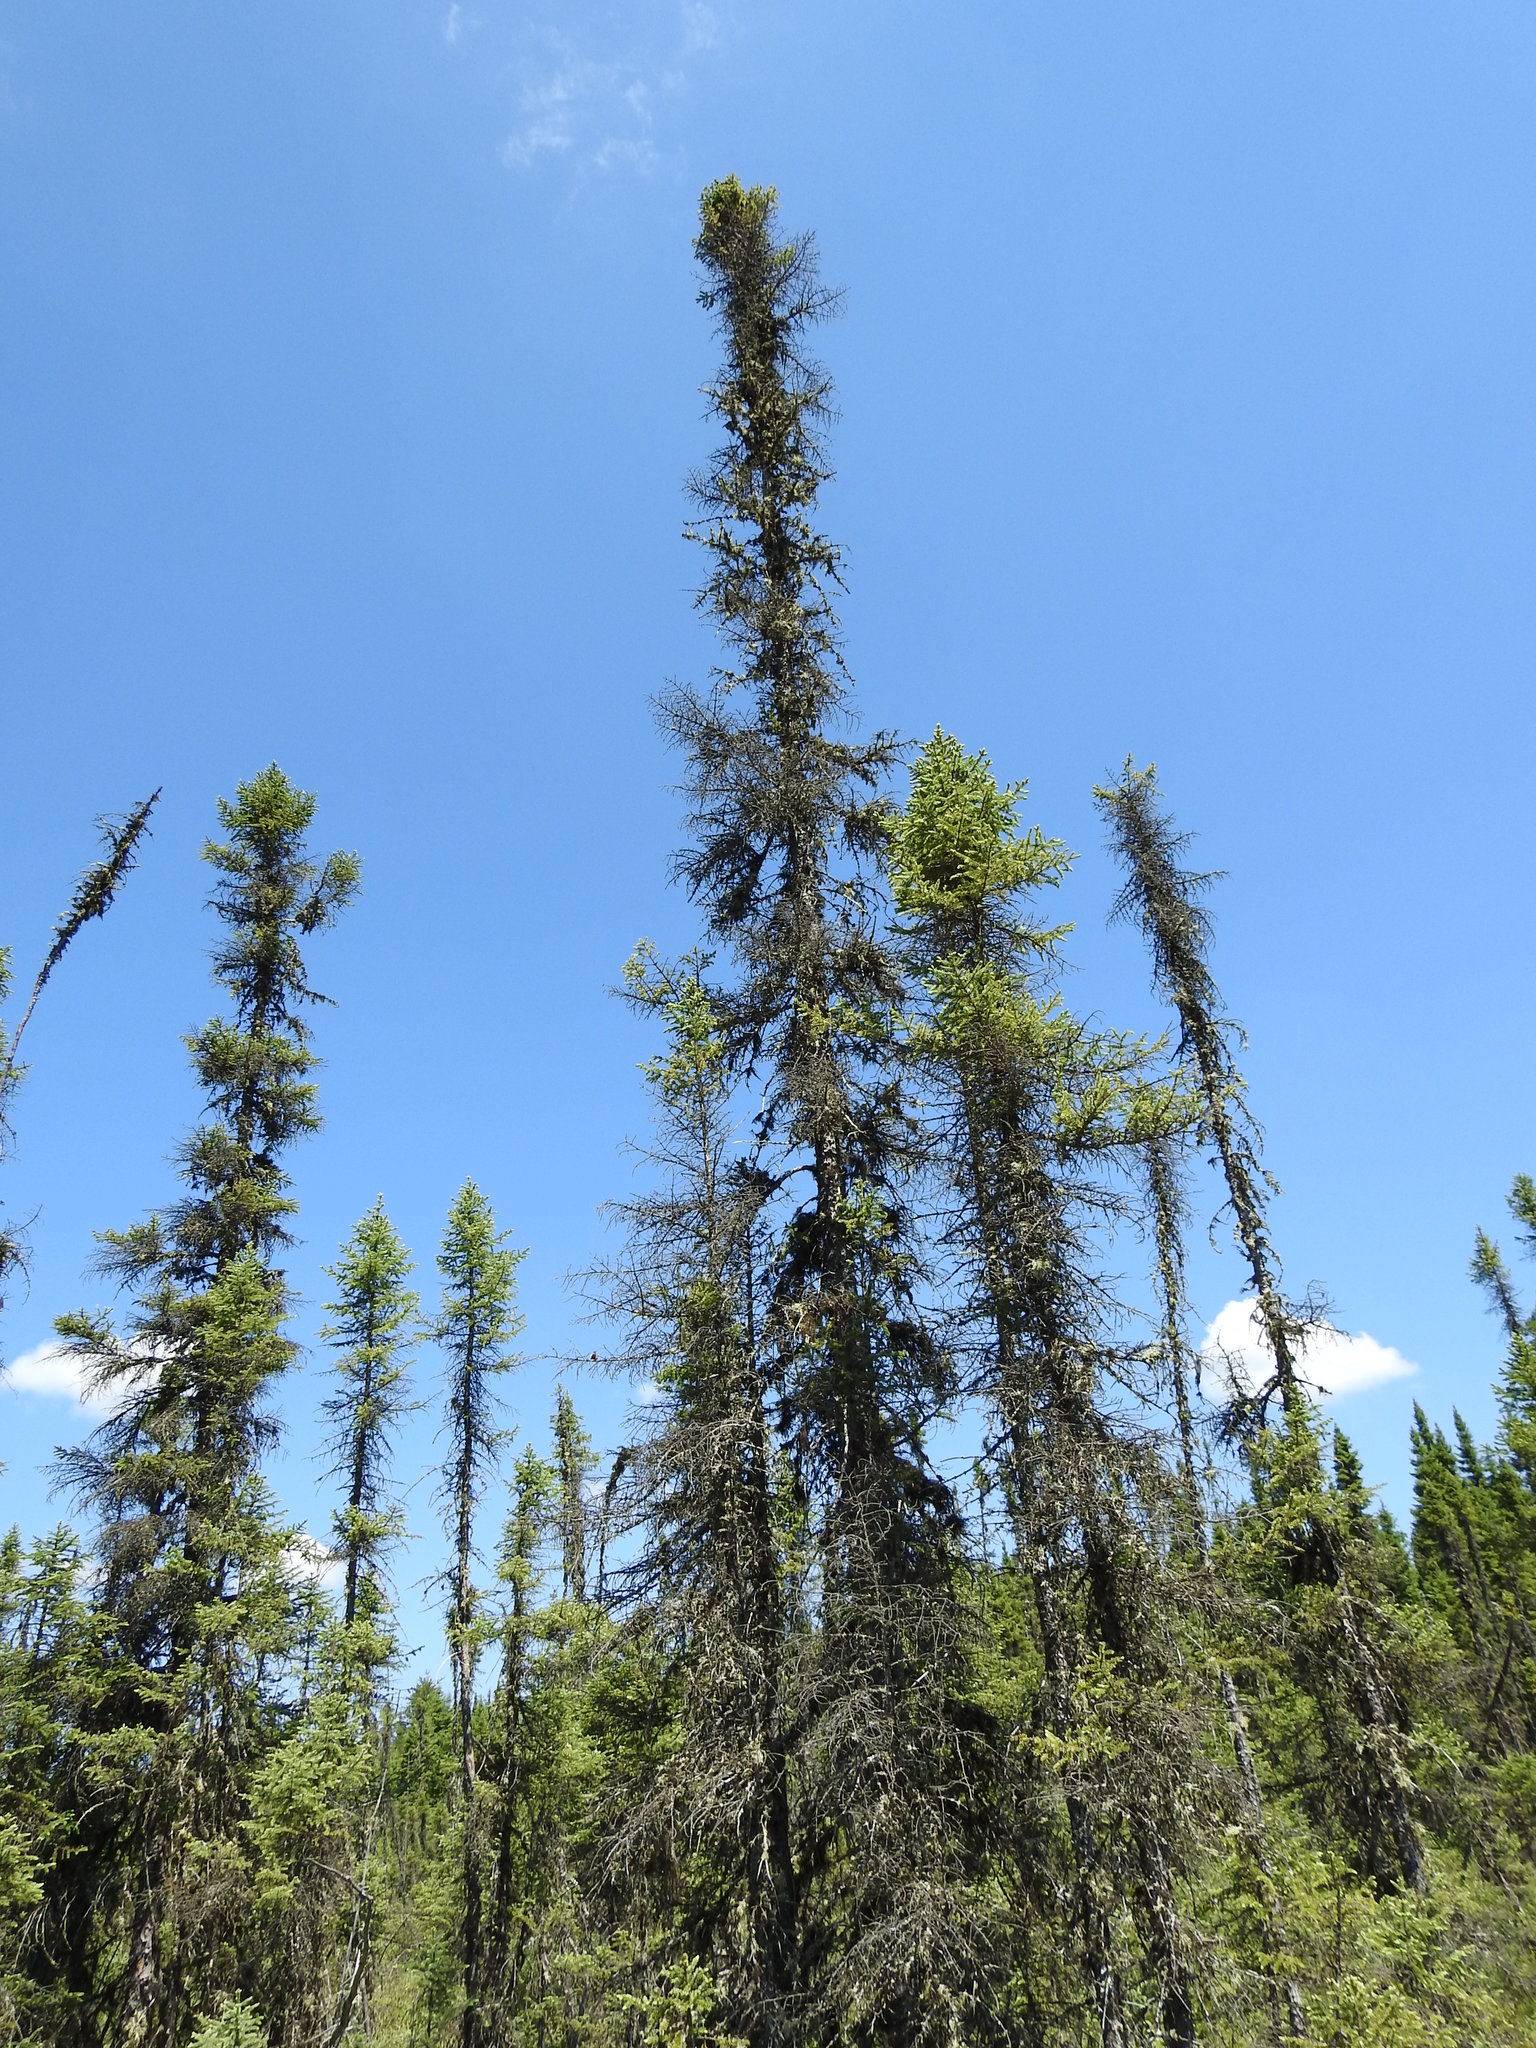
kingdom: Plantae
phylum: Tracheophyta
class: Pinopsida
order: Pinales
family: Pinaceae
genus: Picea
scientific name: Picea mariana
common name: Black spruce
